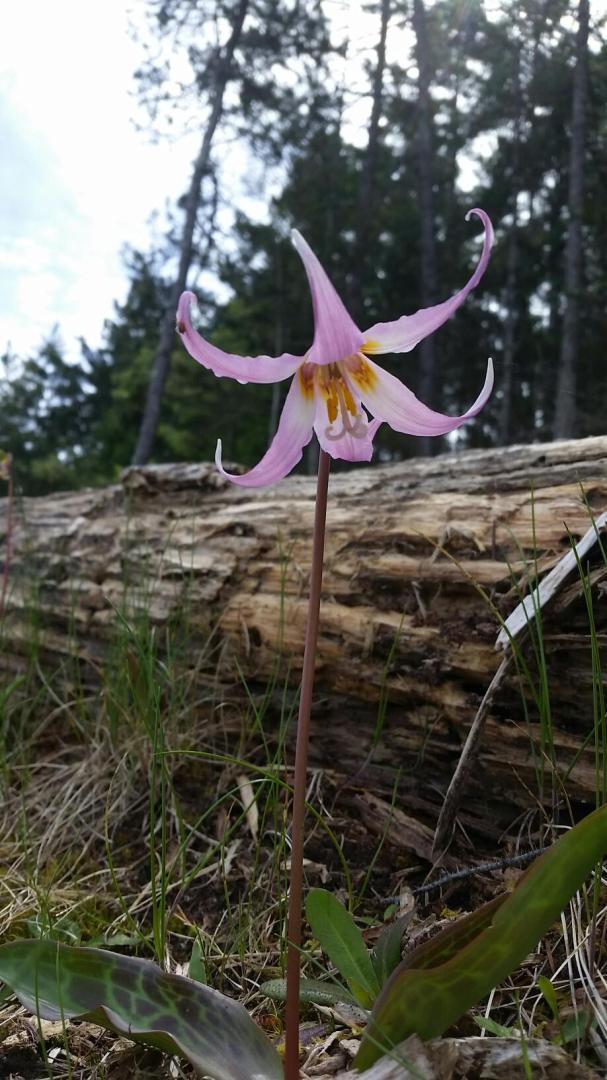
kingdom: Plantae
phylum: Tracheophyta
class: Liliopsida
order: Liliales
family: Liliaceae
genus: Erythronium
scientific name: Erythronium
